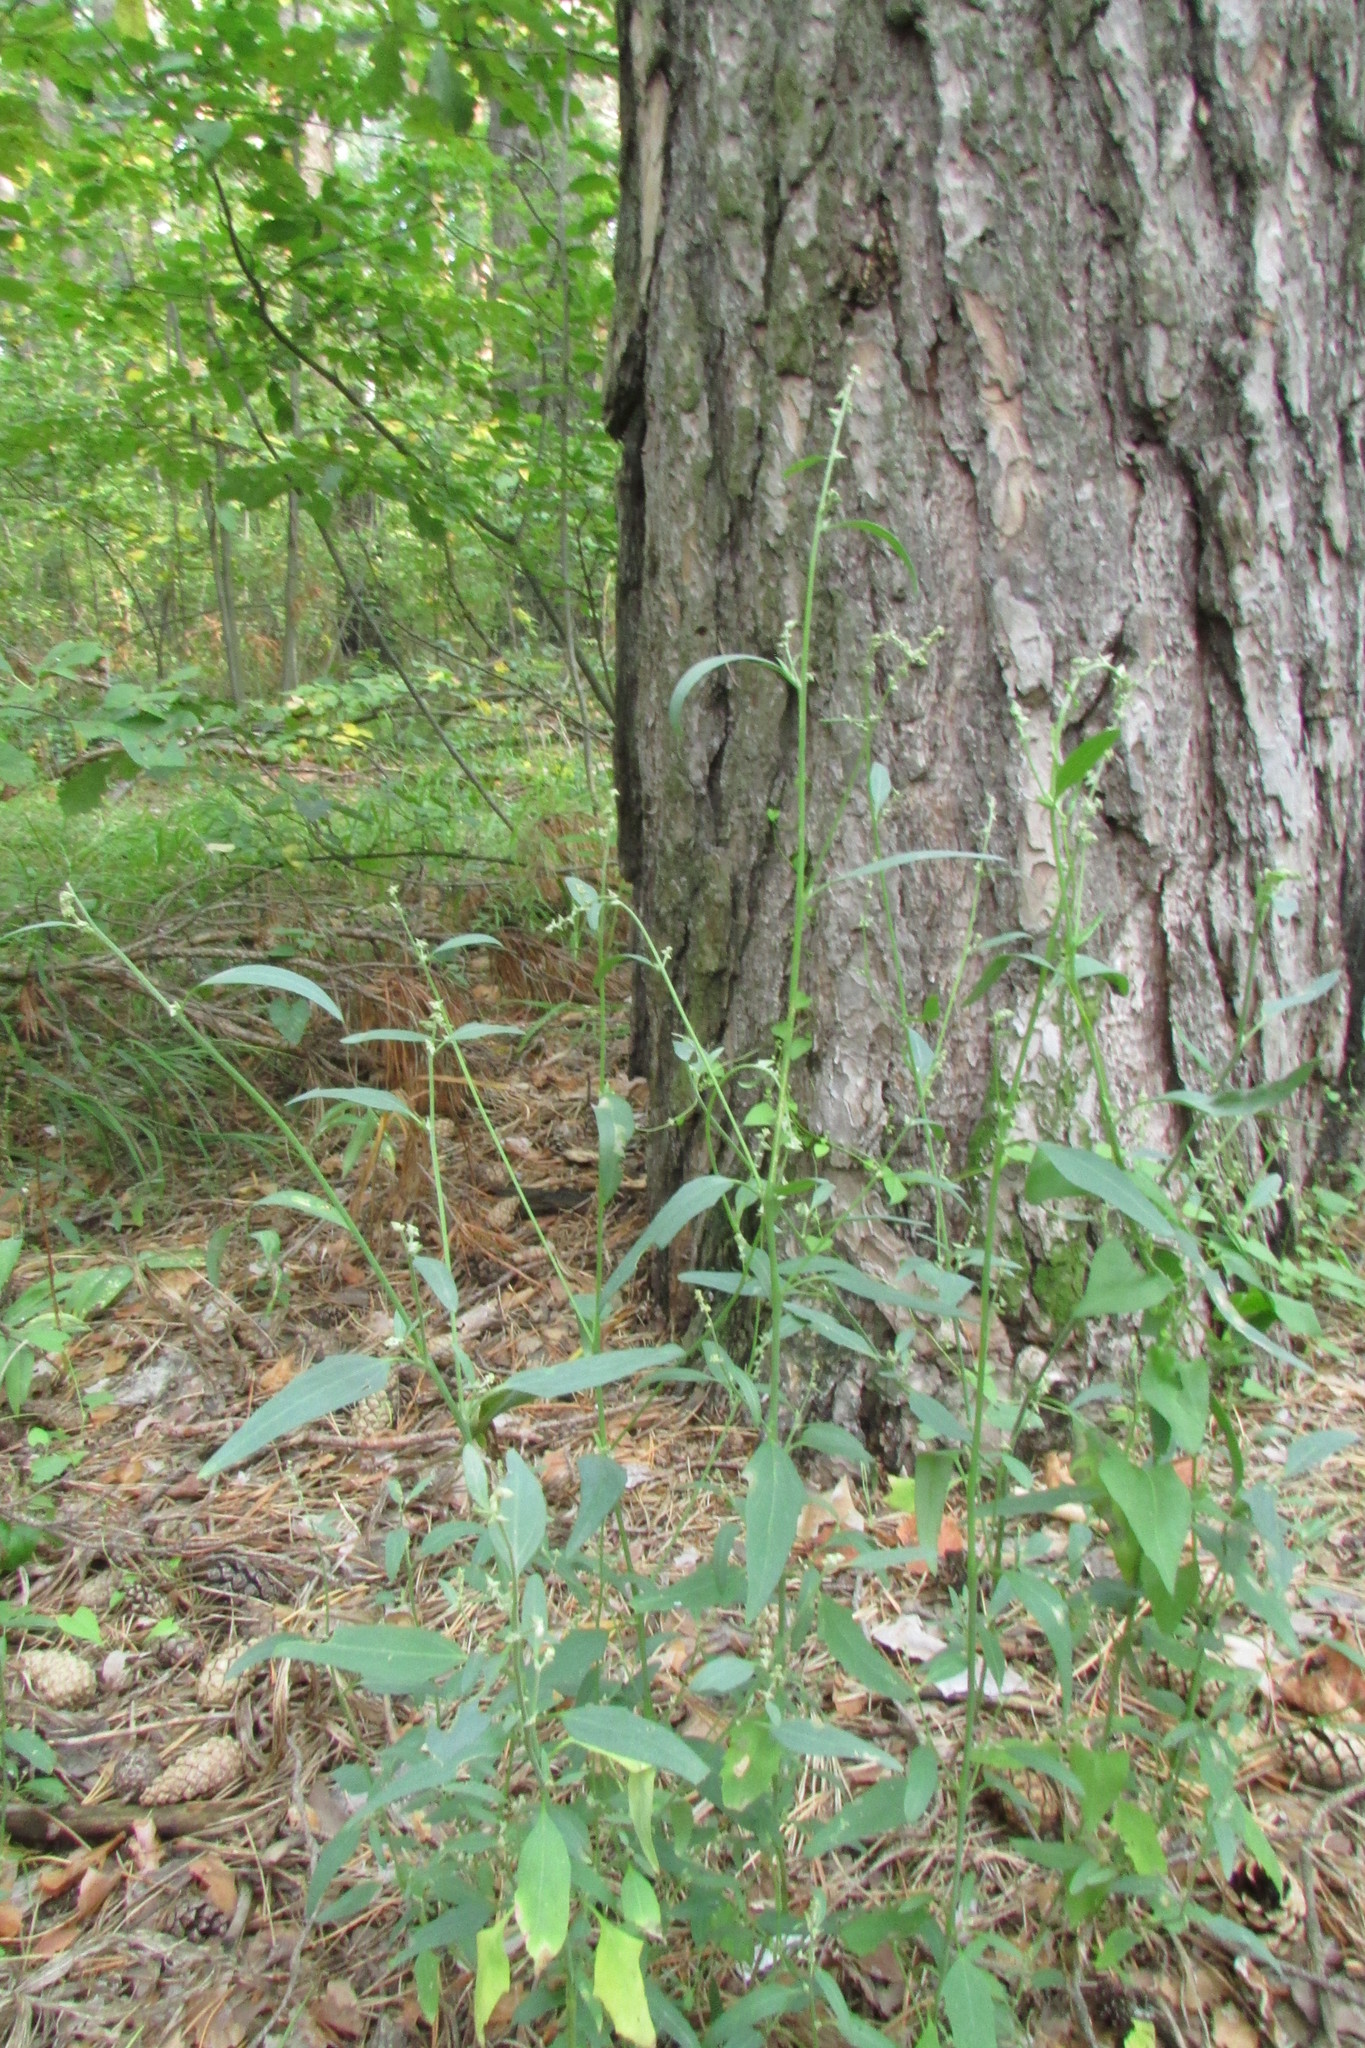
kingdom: Plantae
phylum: Tracheophyta
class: Magnoliopsida
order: Caryophyllales
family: Amaranthaceae
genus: Atriplex
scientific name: Atriplex patula
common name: Common orache
